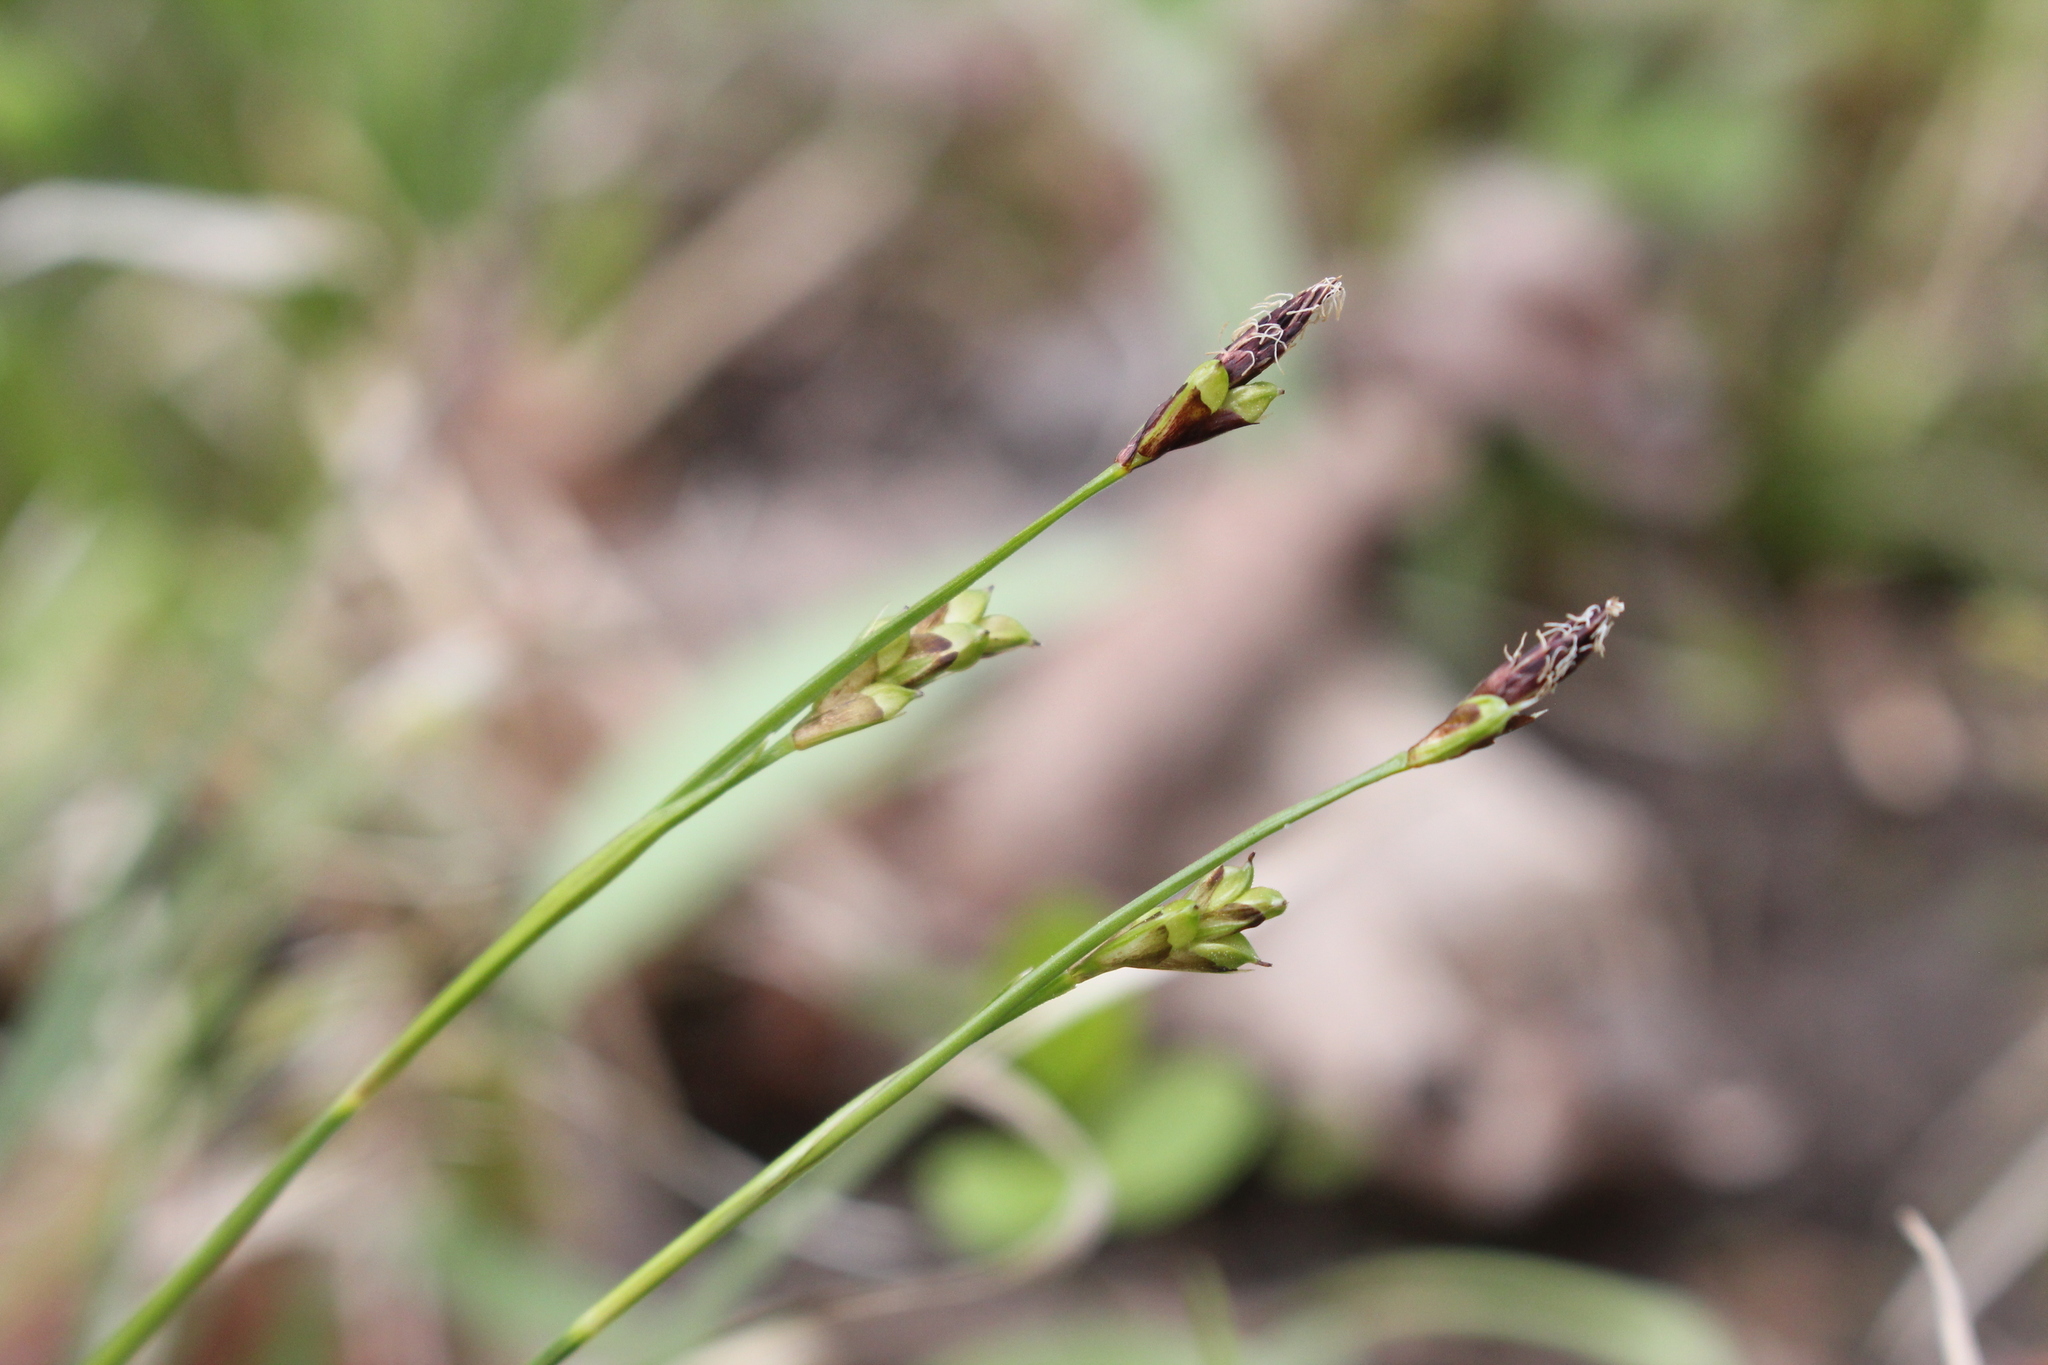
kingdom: Plantae
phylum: Tracheophyta
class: Liliopsida
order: Poales
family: Cyperaceae
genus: Carex
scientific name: Carex pedunculata
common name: Pedunculate sedge
